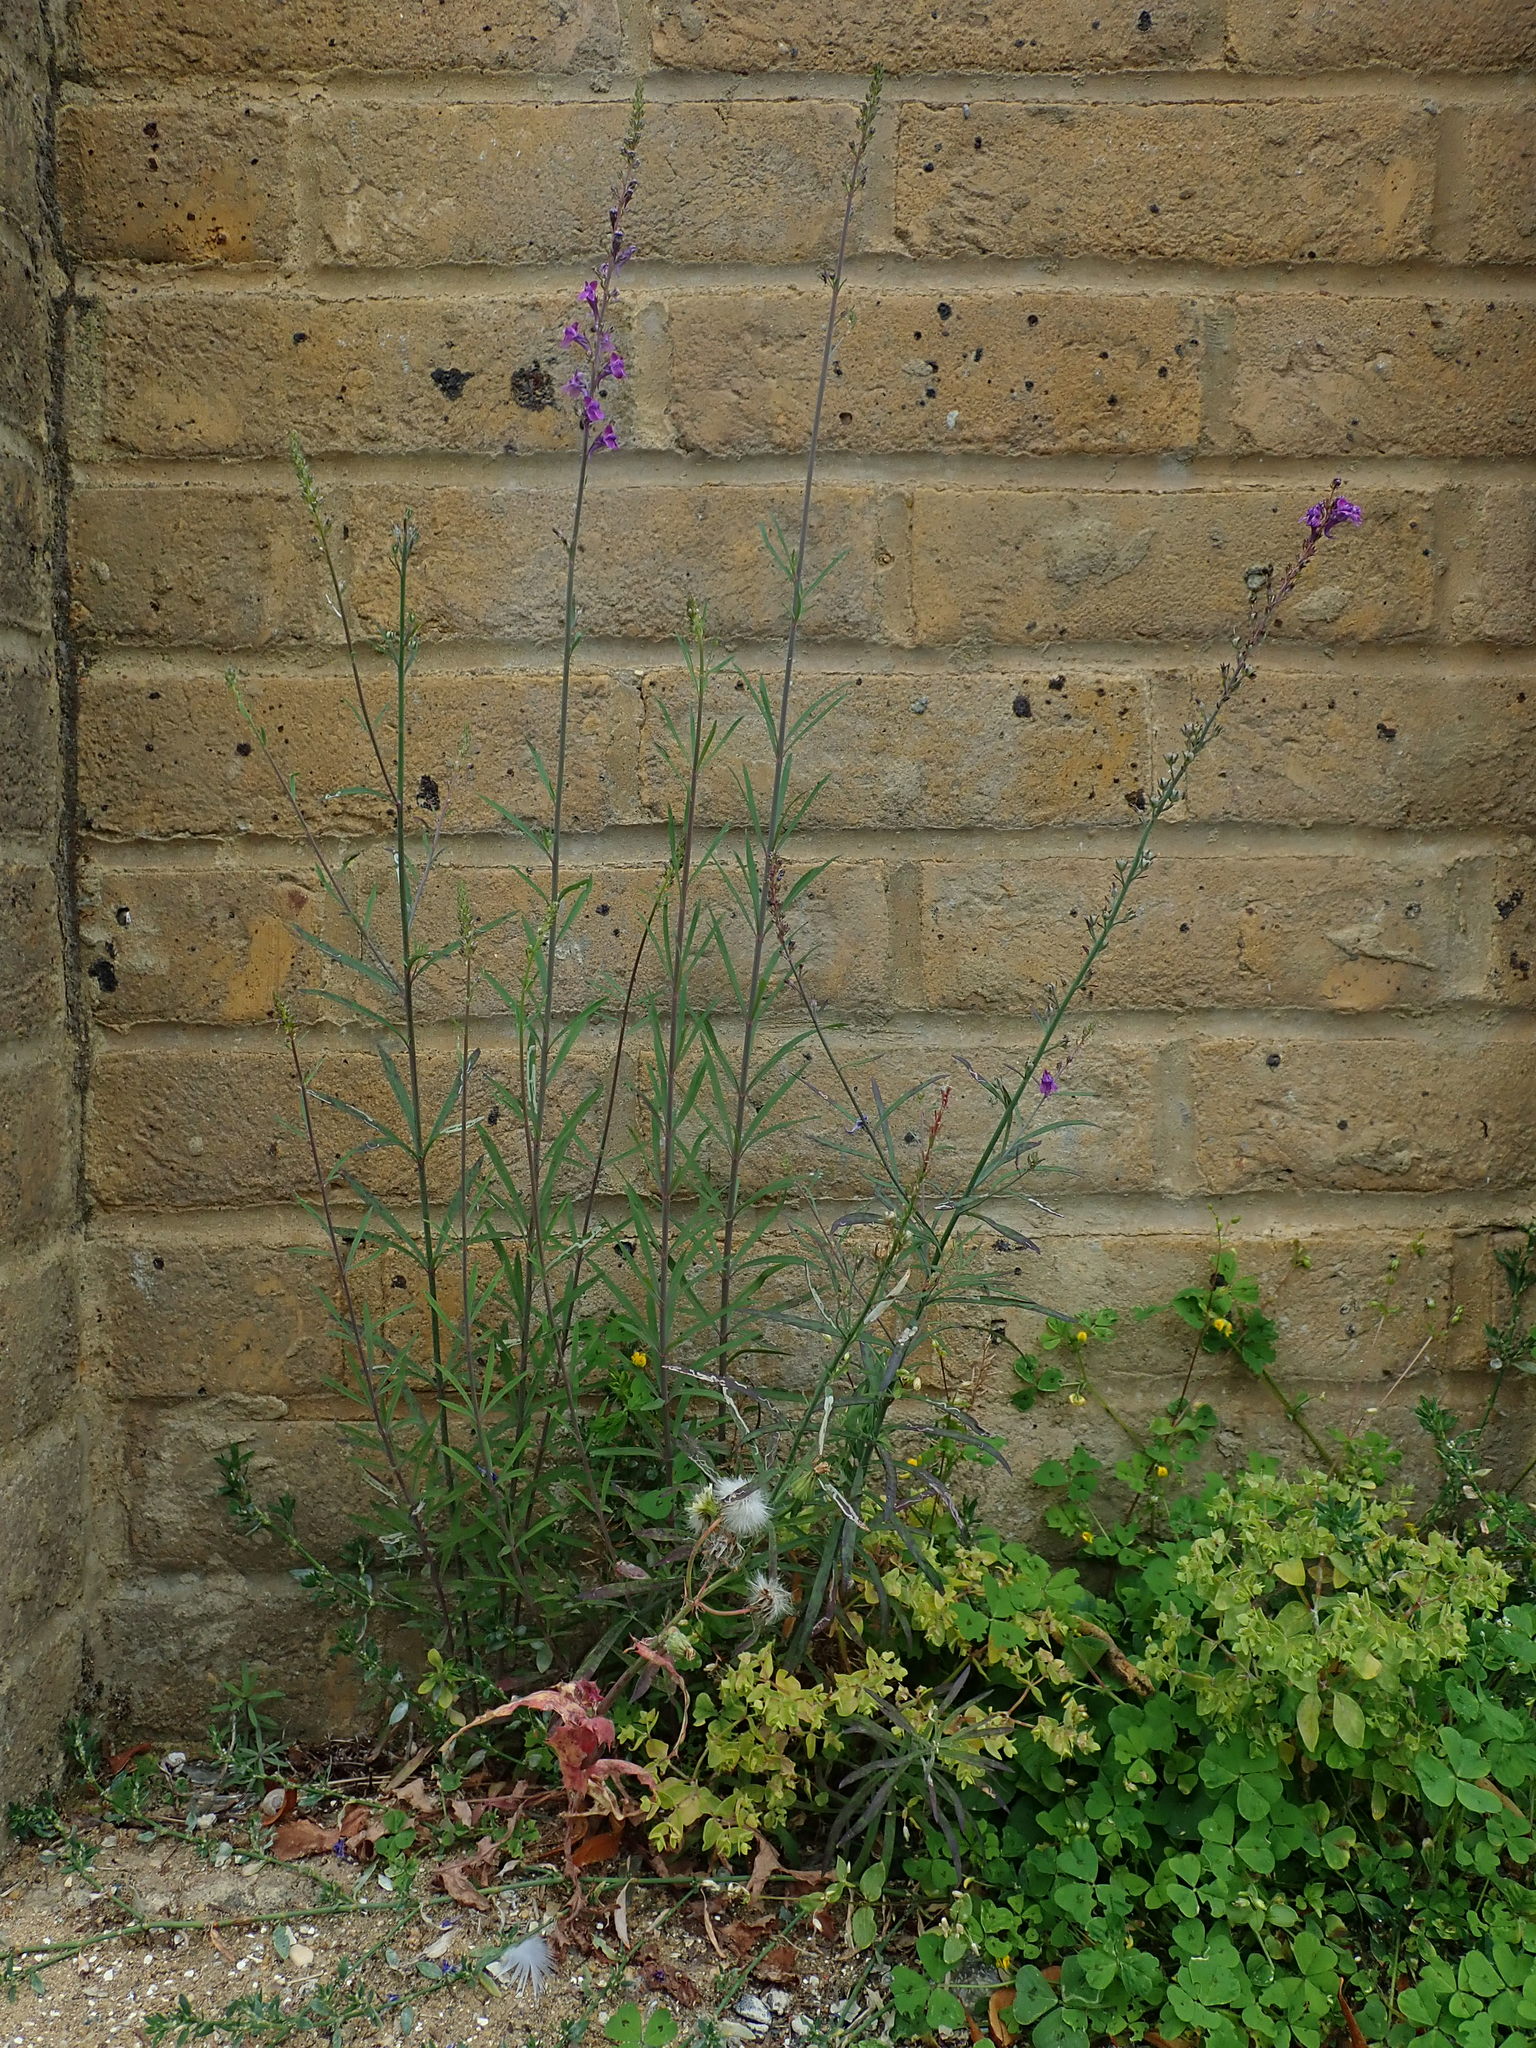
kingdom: Plantae
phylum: Tracheophyta
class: Magnoliopsida
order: Lamiales
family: Plantaginaceae
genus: Linaria
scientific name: Linaria purpurea
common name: Purple toadflax
